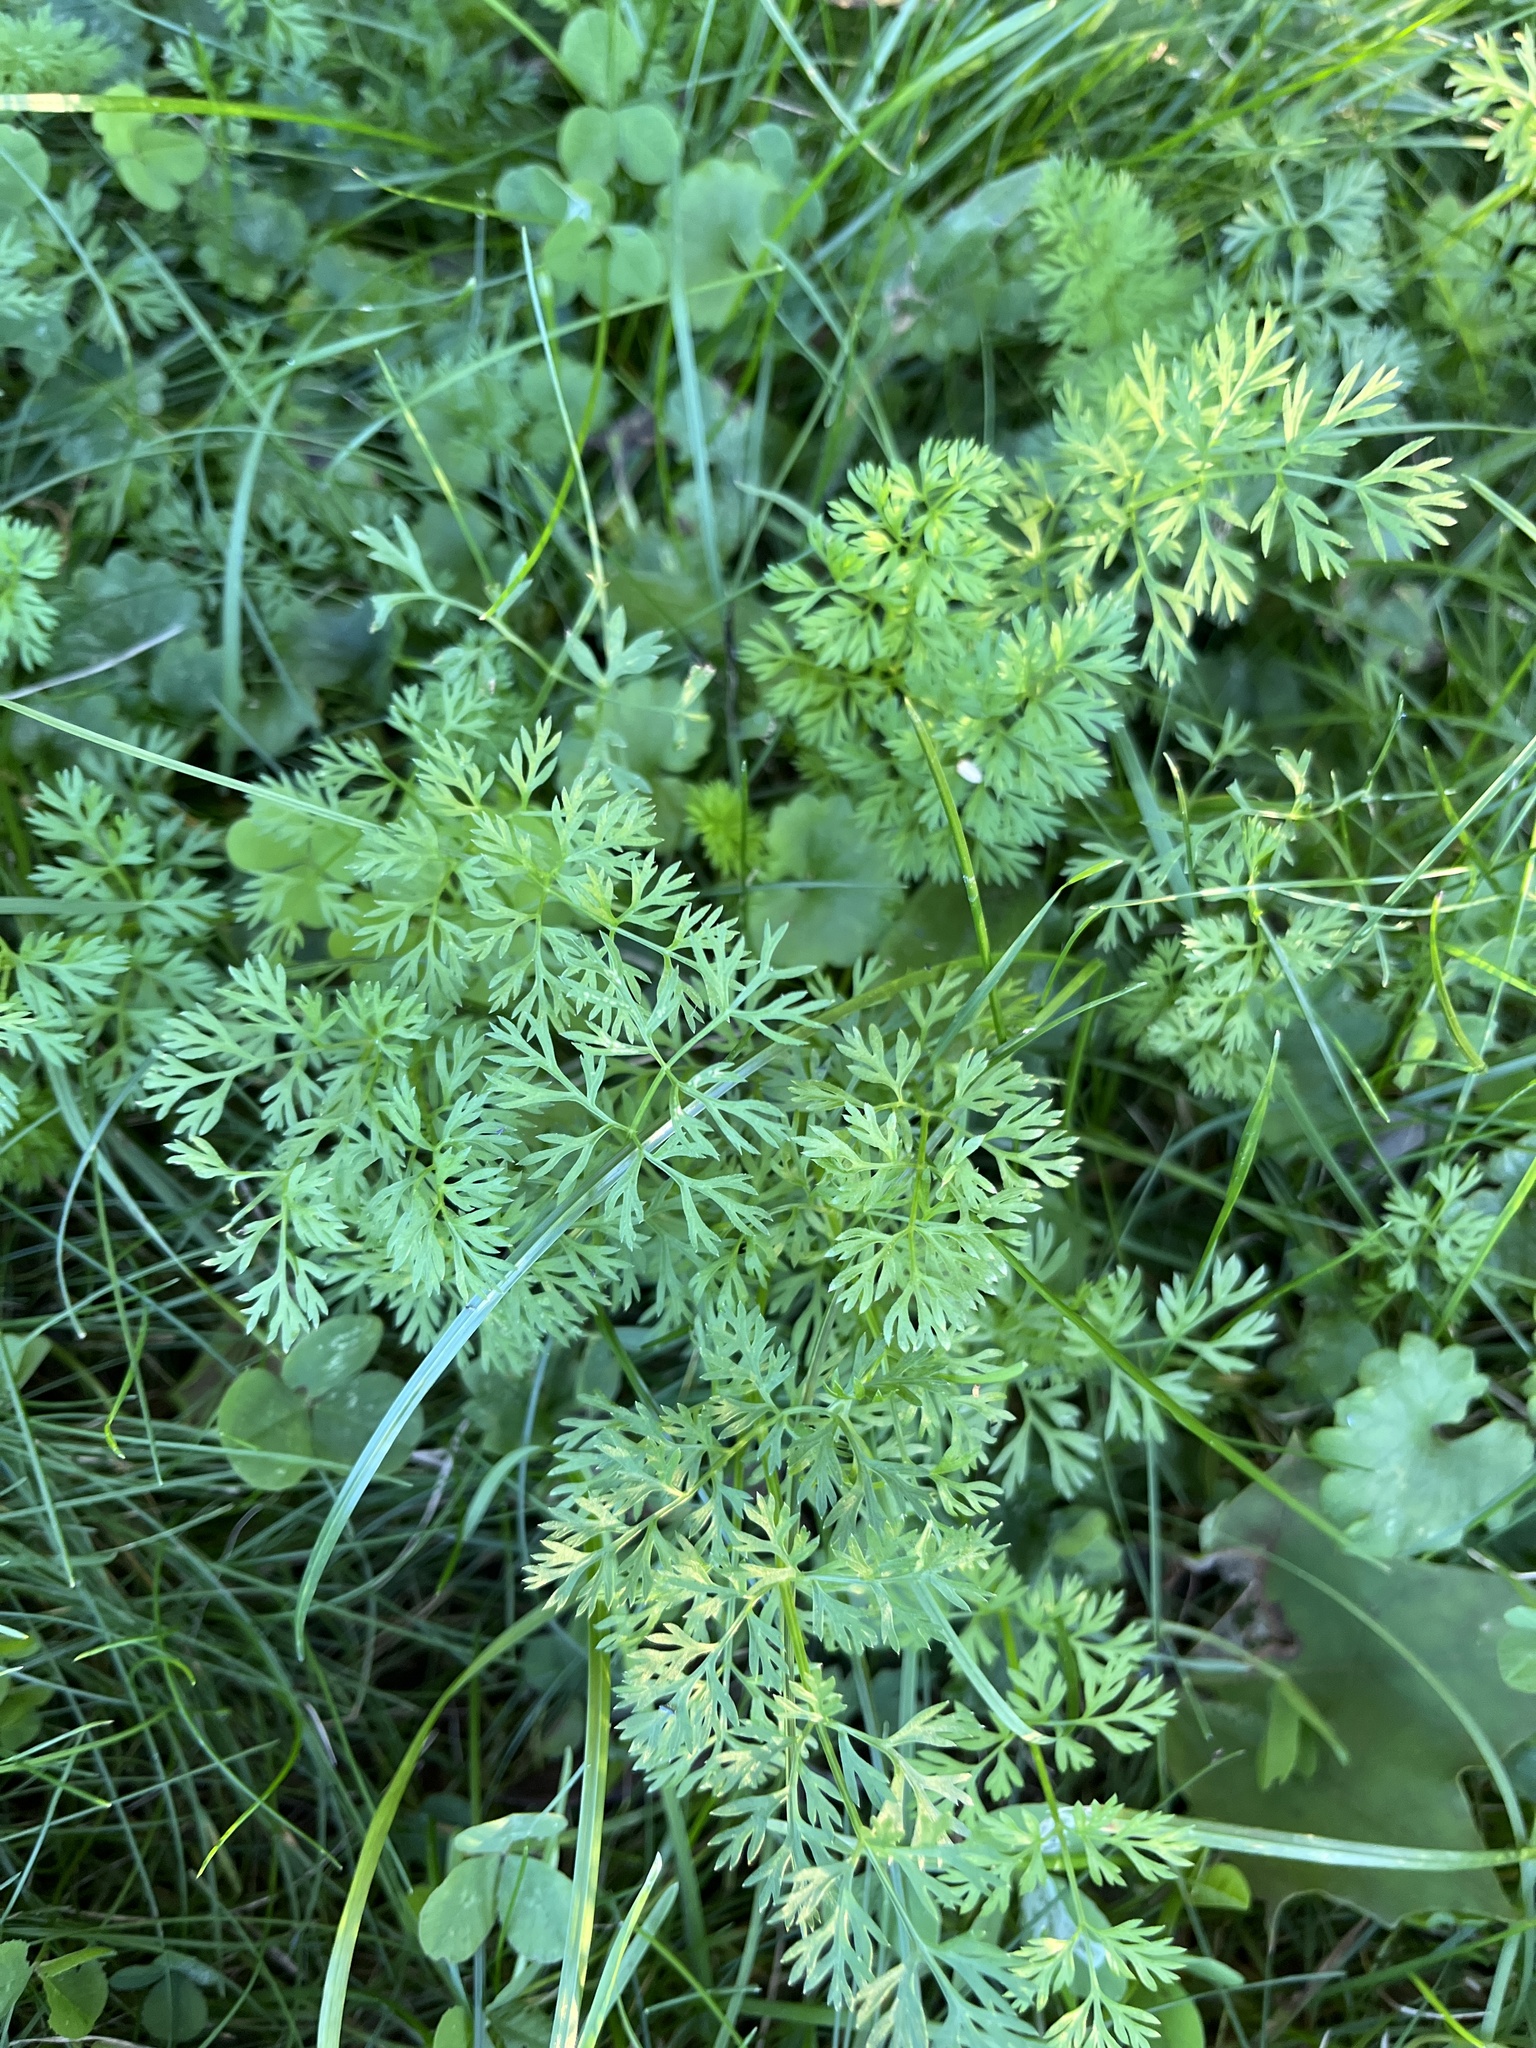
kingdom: Plantae
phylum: Tracheophyta
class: Magnoliopsida
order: Apiales
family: Apiaceae
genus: Daucus
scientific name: Daucus carota
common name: Wild carrot
